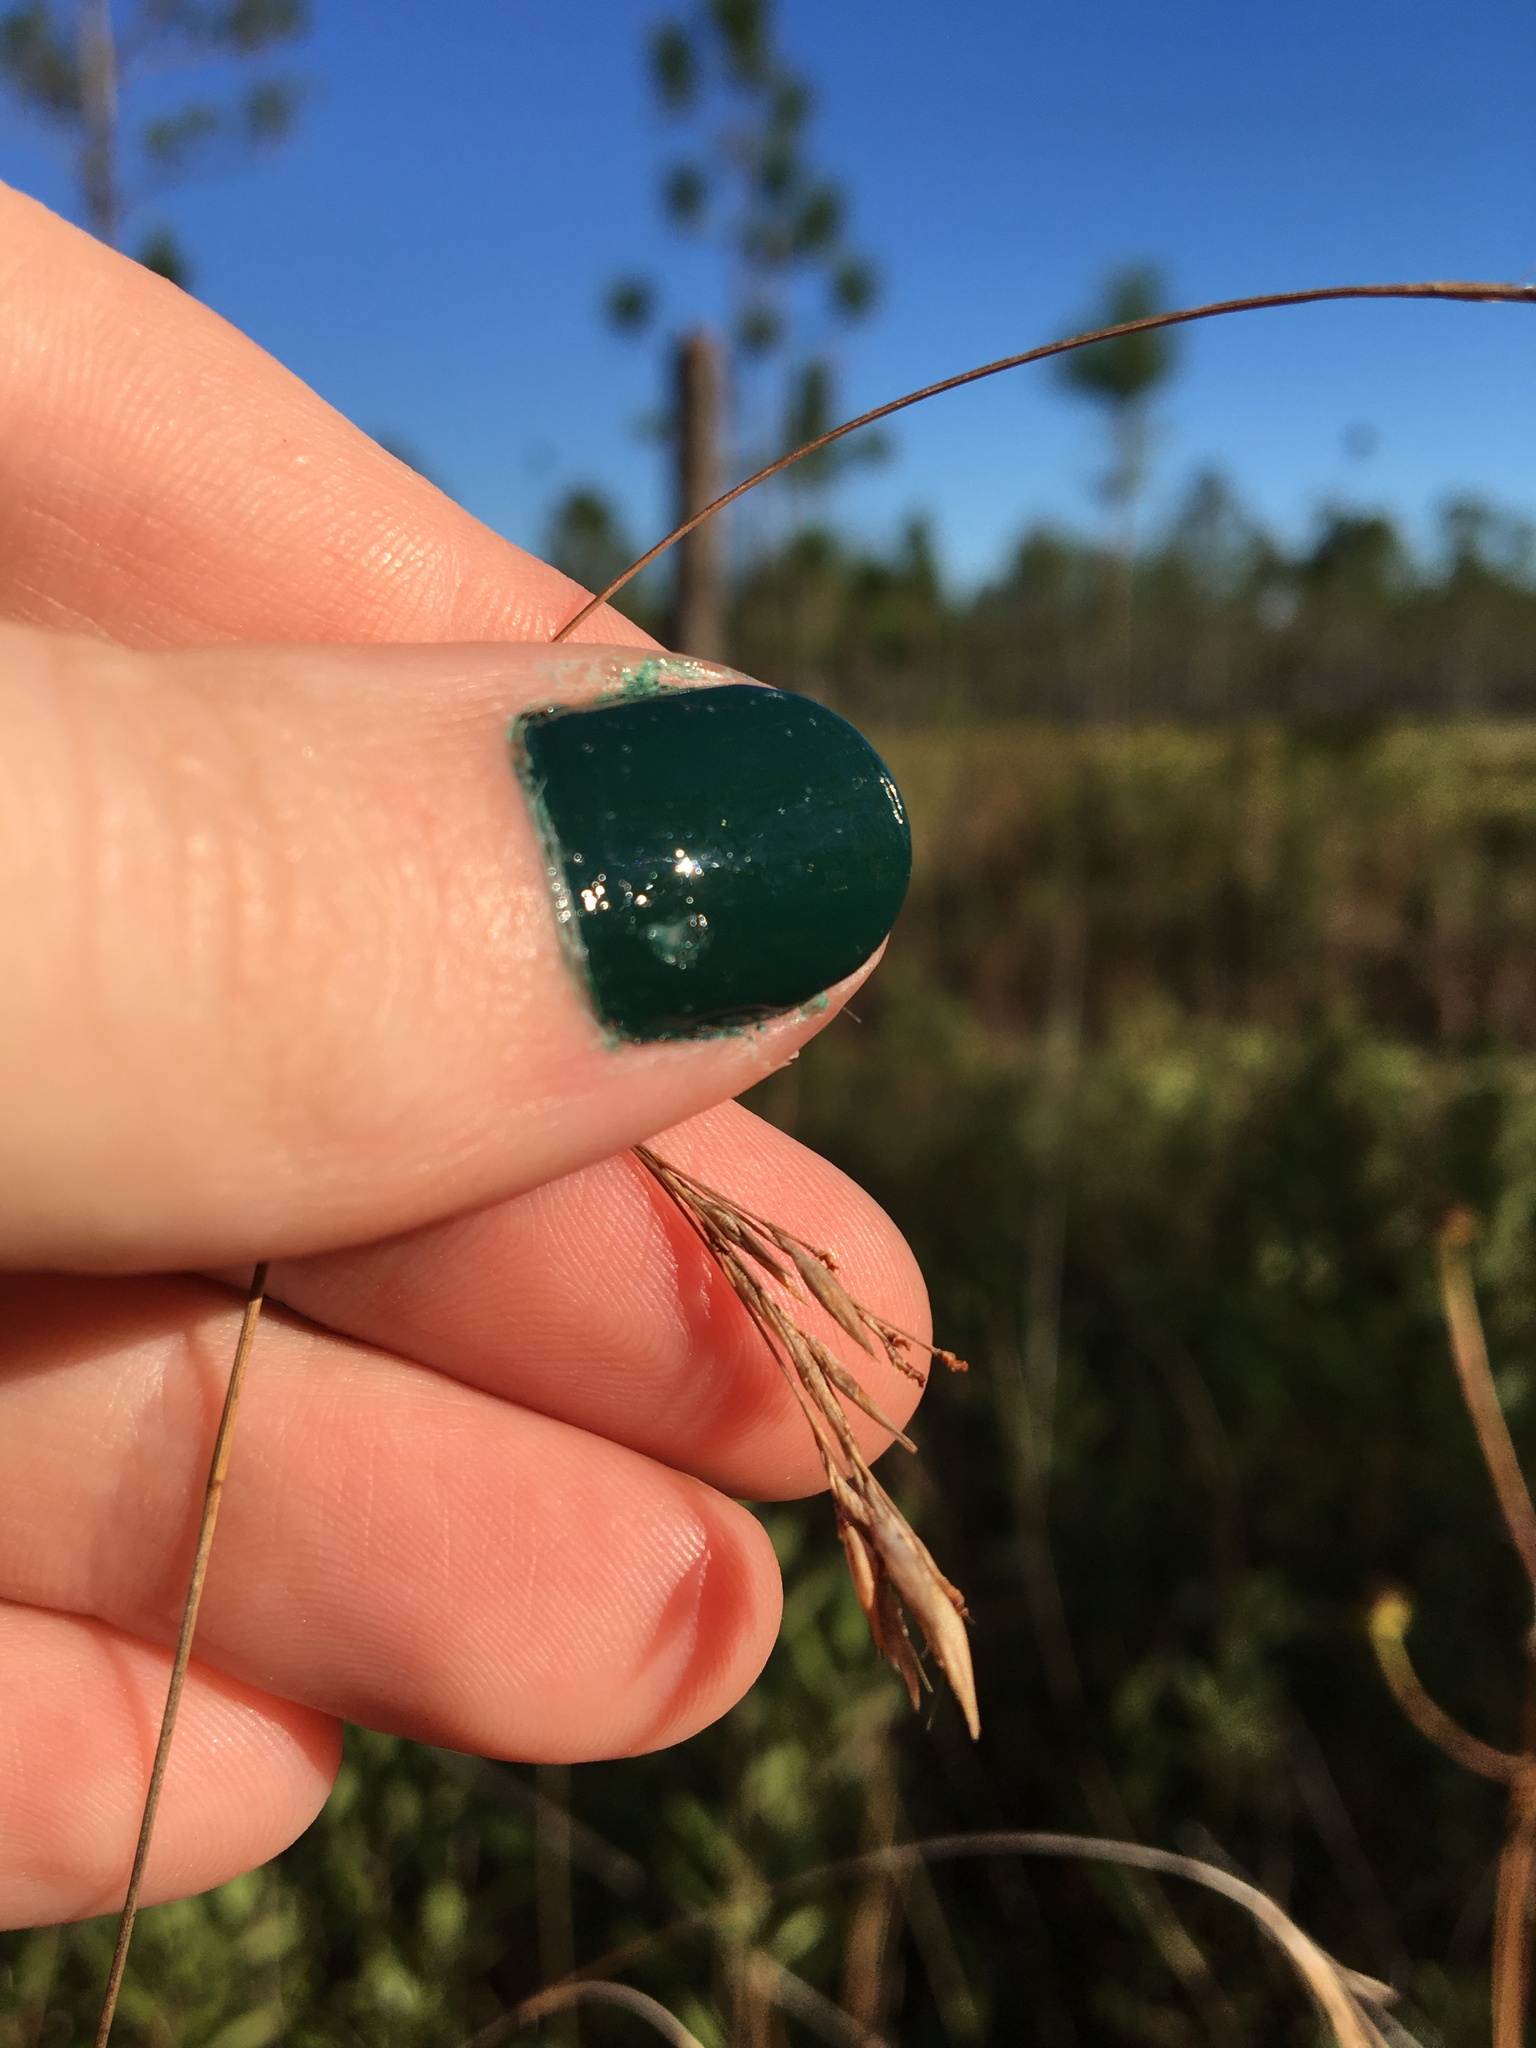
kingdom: Plantae
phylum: Tracheophyta
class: Liliopsida
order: Poales
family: Cyperaceae
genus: Rhynchospora
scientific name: Rhynchospora inexpansa
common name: Nodding beaksedge
